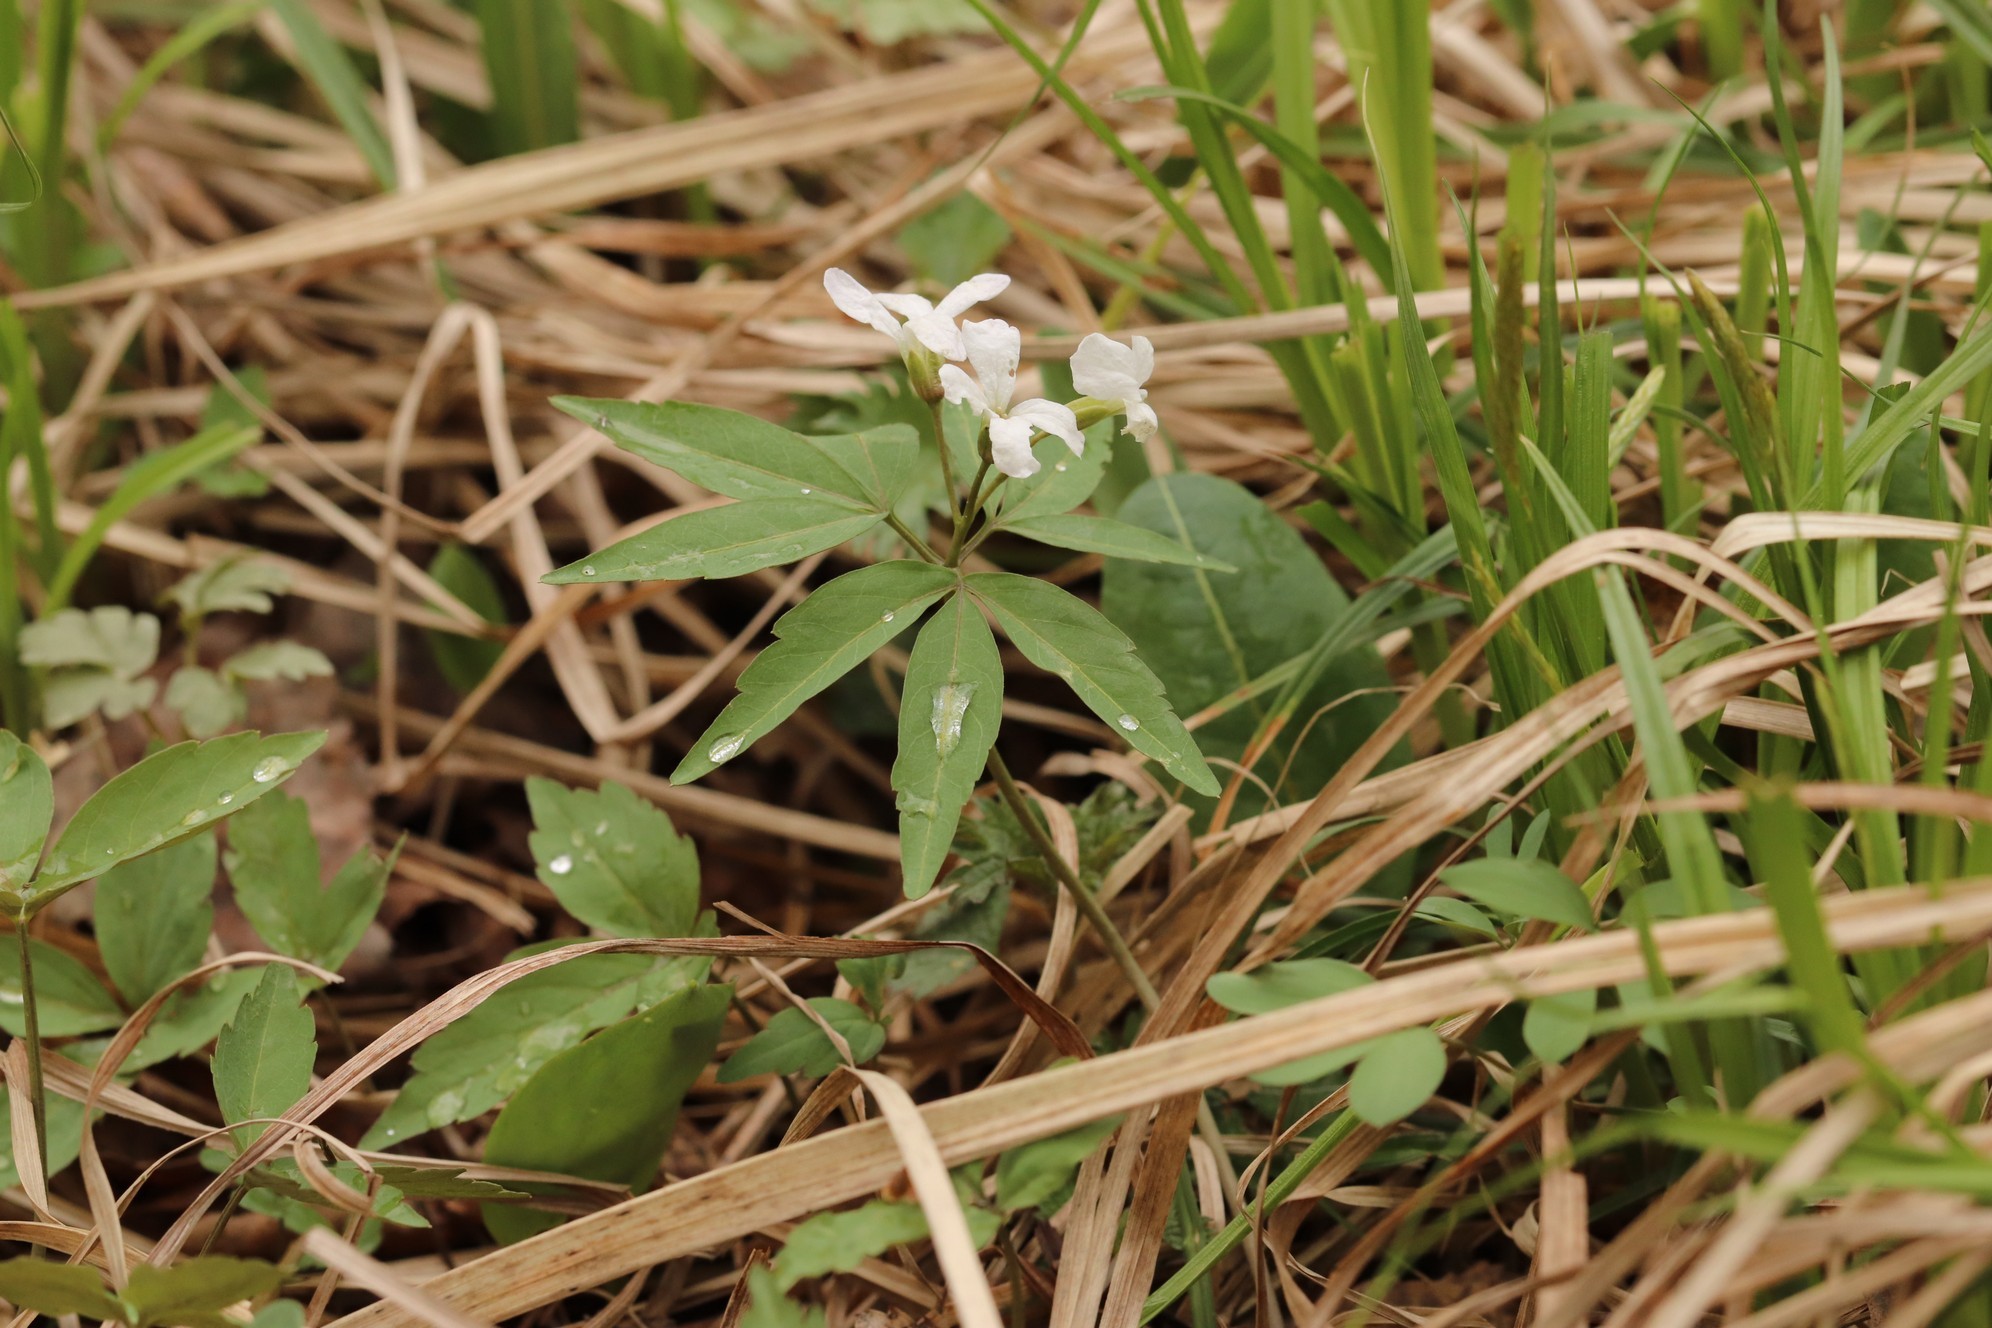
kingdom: Plantae
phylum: Tracheophyta
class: Magnoliopsida
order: Brassicales
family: Brassicaceae
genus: Cardamine
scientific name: Cardamine altaica
